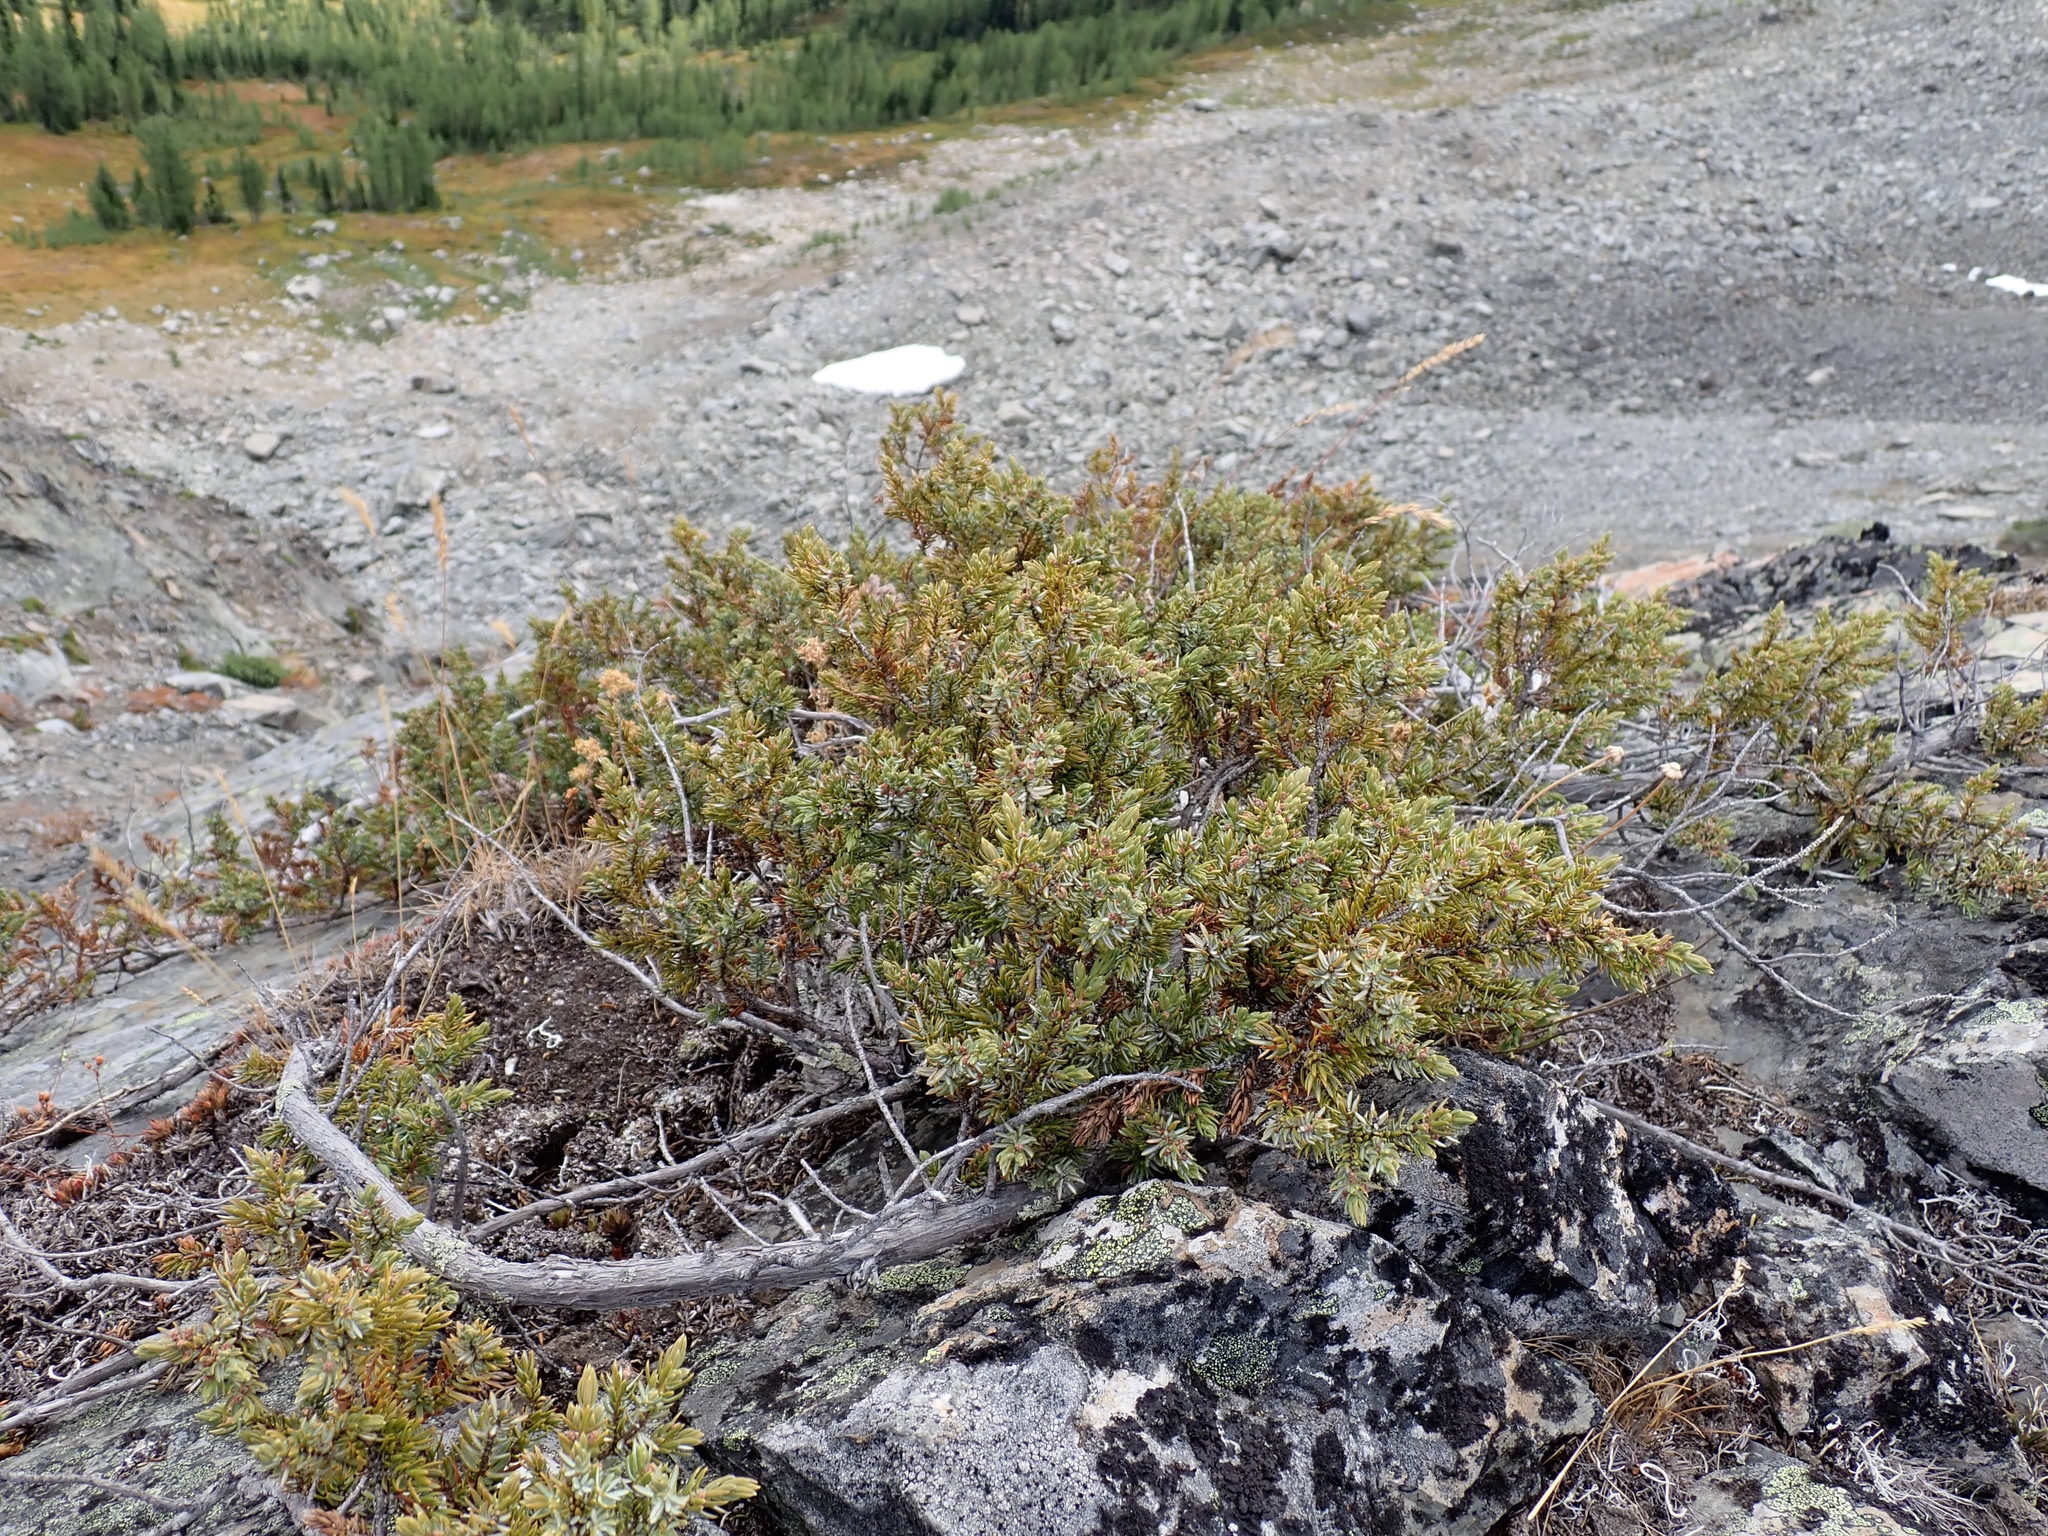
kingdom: Plantae
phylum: Tracheophyta
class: Pinopsida
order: Pinales
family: Cupressaceae
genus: Juniperus
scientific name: Juniperus communis
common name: Common juniper
